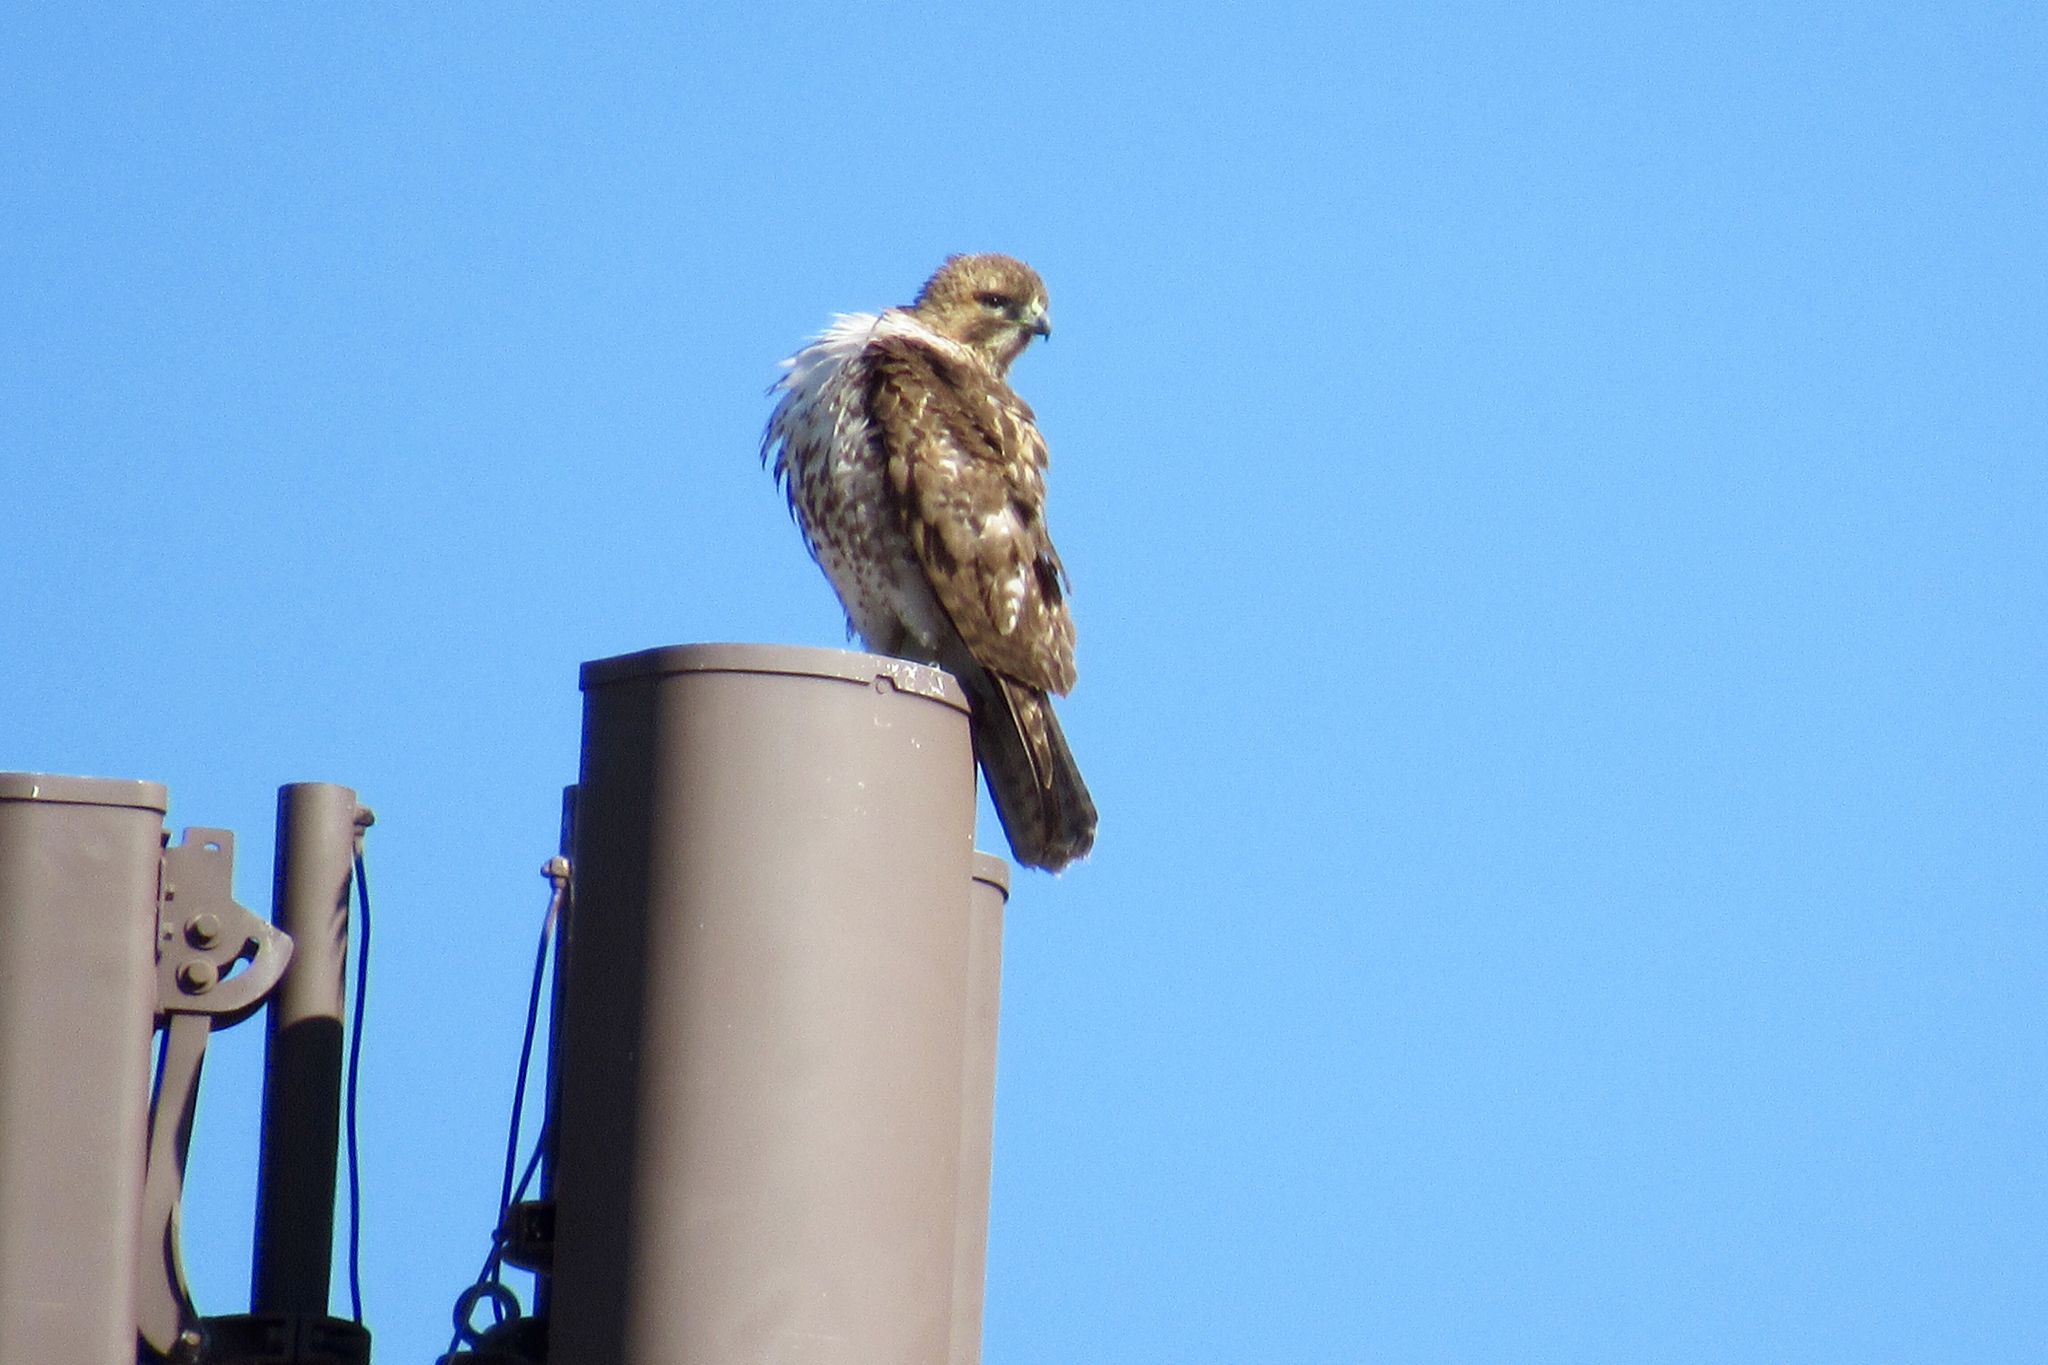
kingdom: Animalia
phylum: Chordata
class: Aves
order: Accipitriformes
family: Accipitridae
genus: Buteo
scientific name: Buteo jamaicensis
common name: Red-tailed hawk
